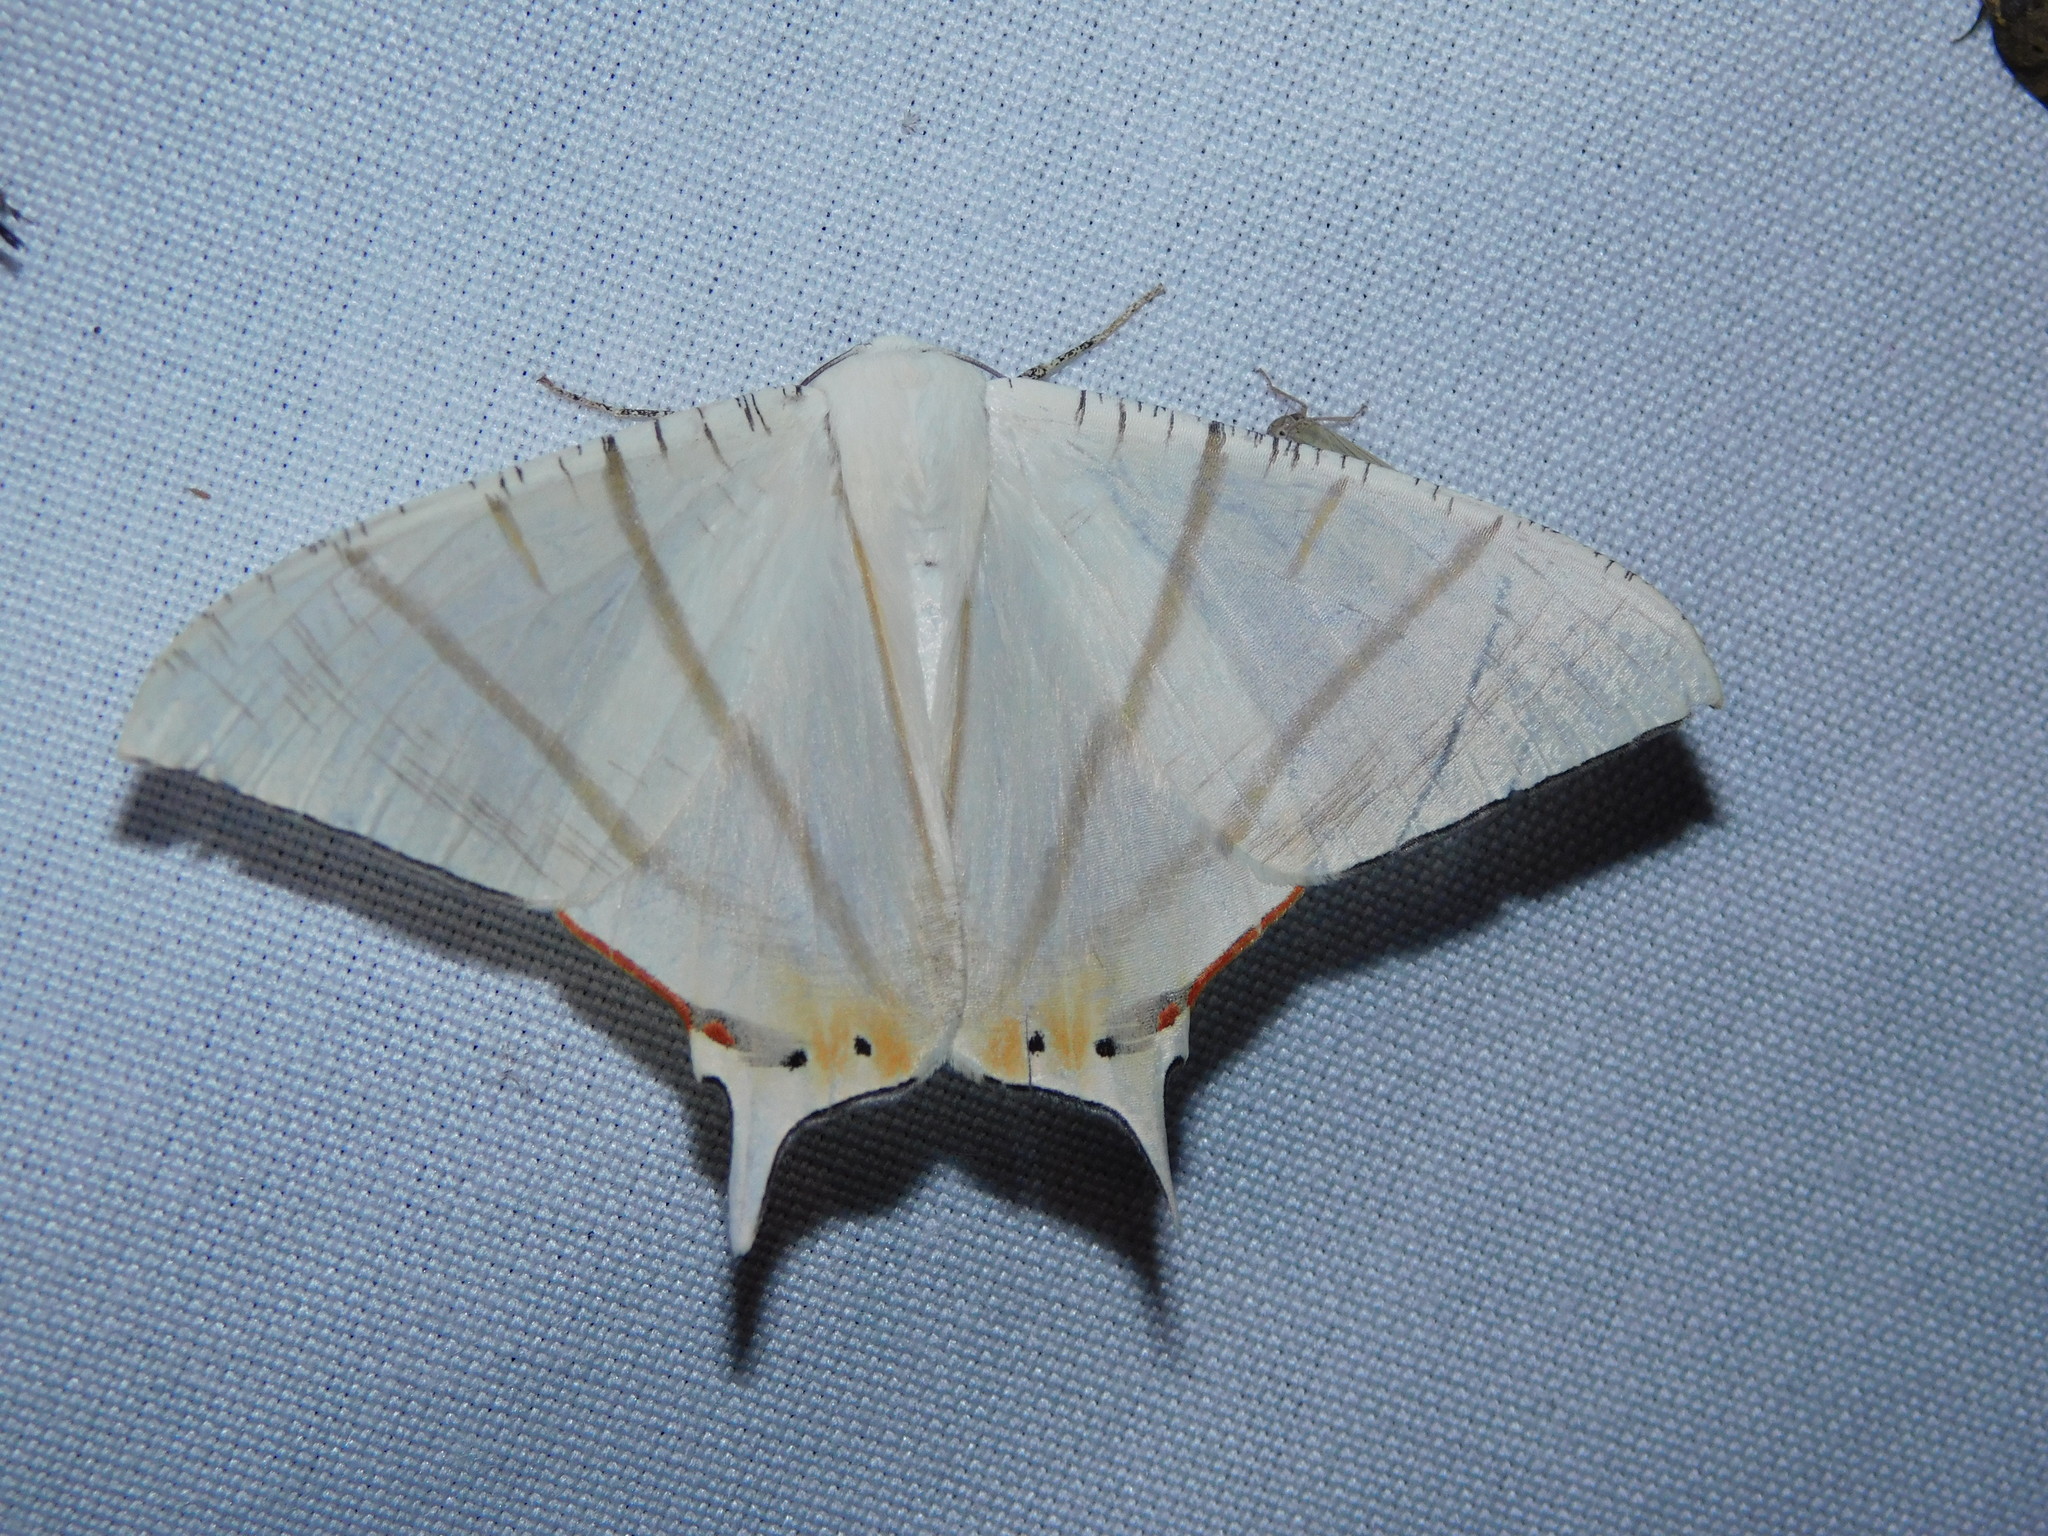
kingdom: Animalia
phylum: Arthropoda
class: Insecta
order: Lepidoptera
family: Geometridae
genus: Ourapteryx
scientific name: Ourapteryx marginata
